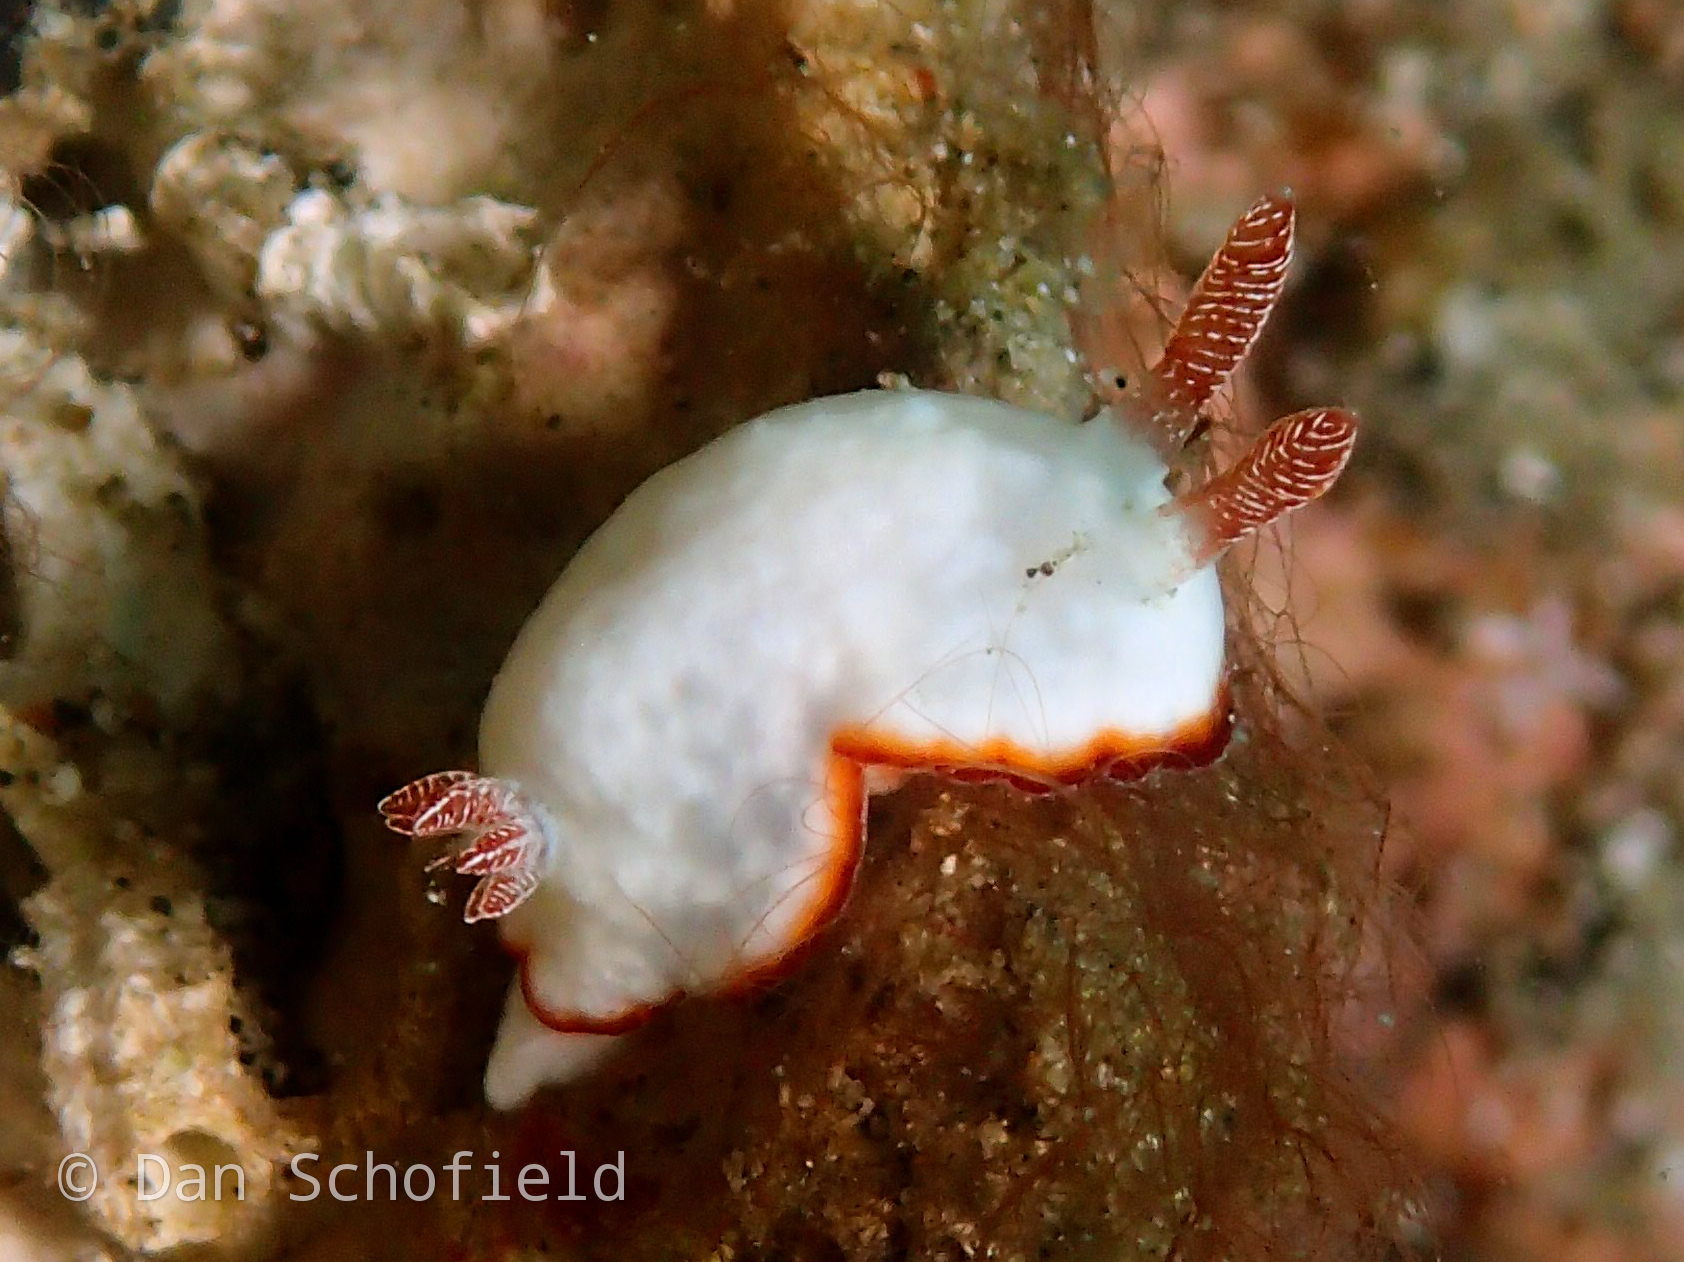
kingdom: Animalia
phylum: Mollusca
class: Gastropoda
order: Nudibranchia
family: Chromodorididae
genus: Goniobranchus
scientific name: Goniobranchus verrieri
